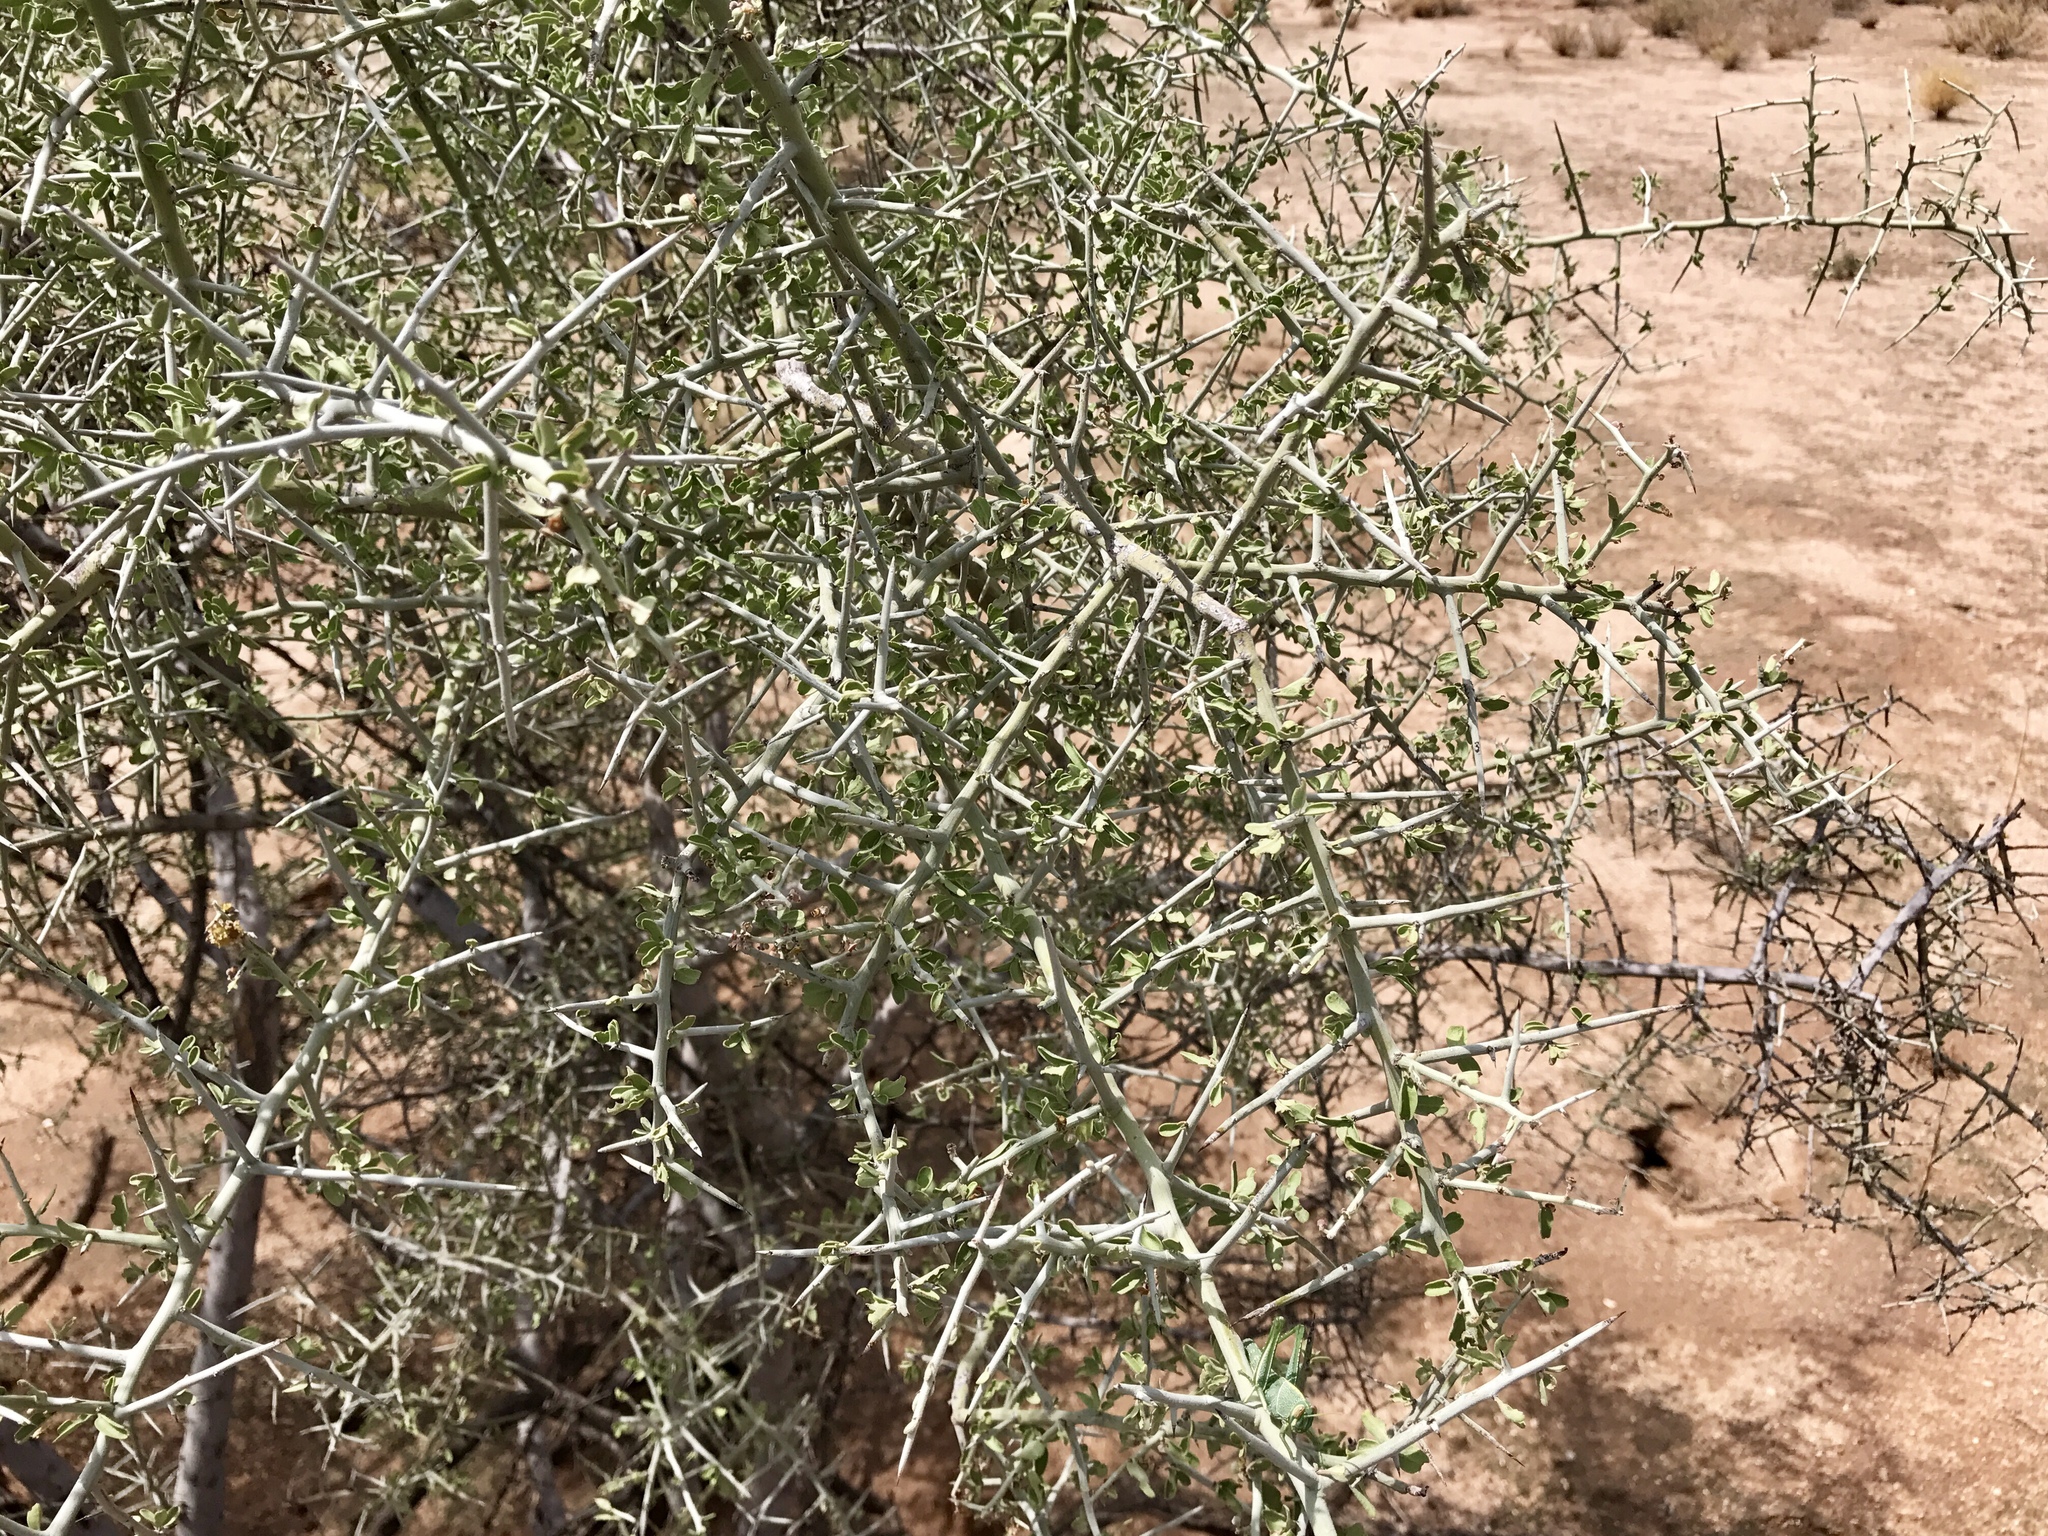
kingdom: Plantae
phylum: Tracheophyta
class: Magnoliopsida
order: Rosales
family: Rhamnaceae
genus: Sarcomphalus
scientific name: Sarcomphalus obtusifolius
